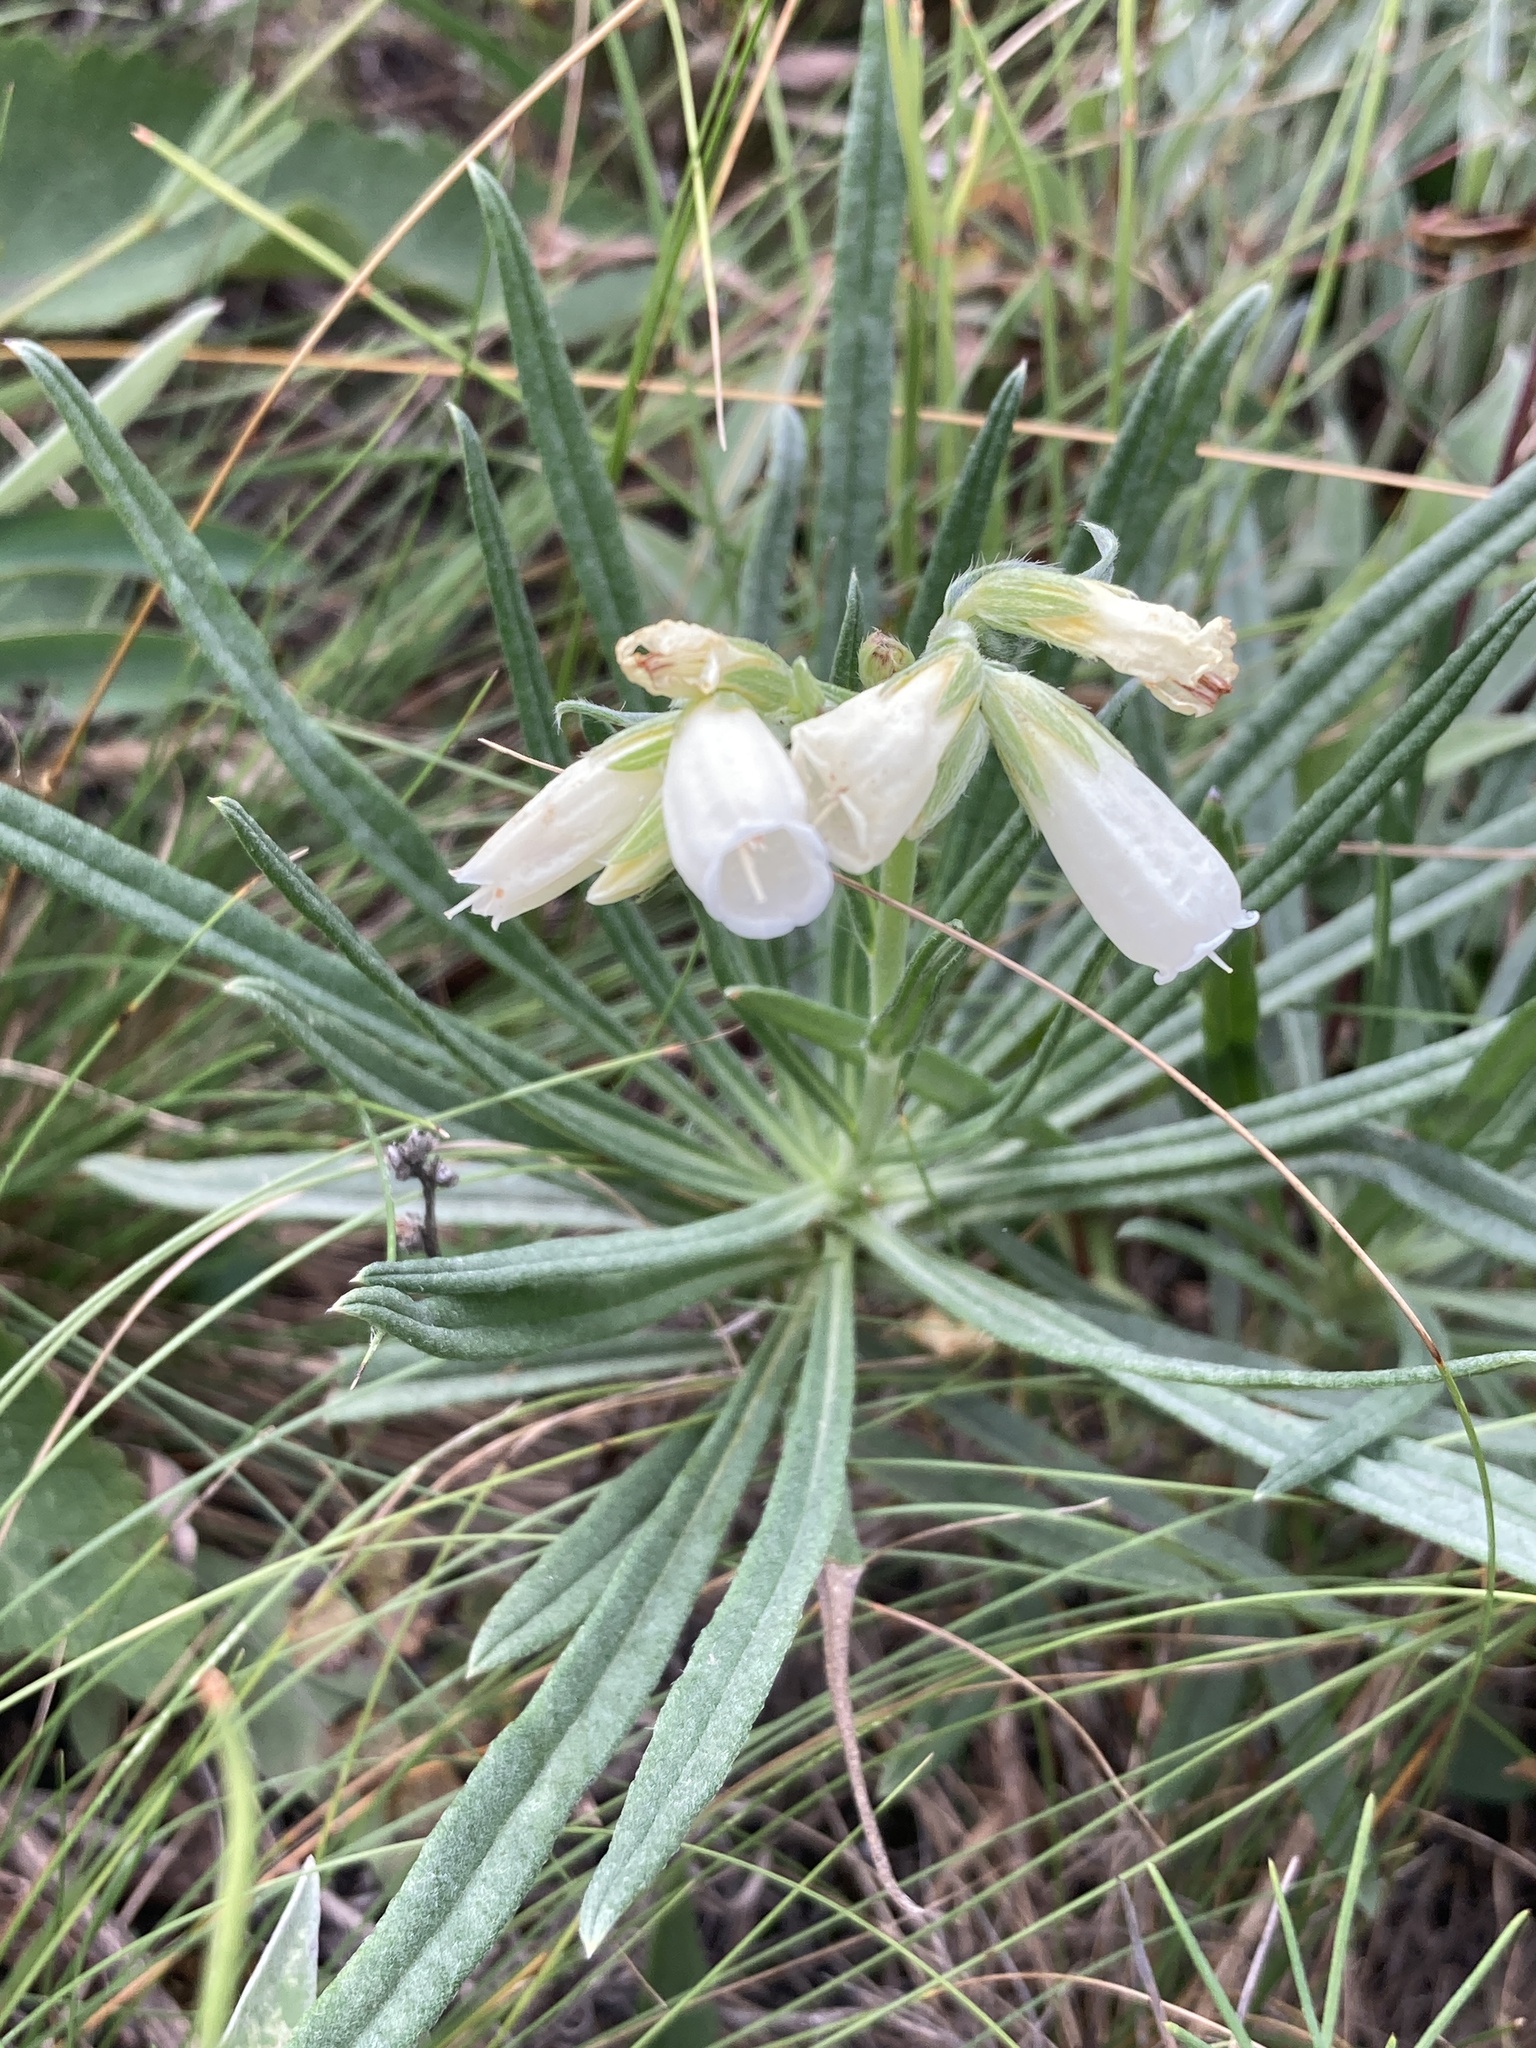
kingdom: Plantae
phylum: Tracheophyta
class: Magnoliopsida
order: Boraginales
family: Boraginaceae
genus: Onosma
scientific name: Onosma simplicissima
